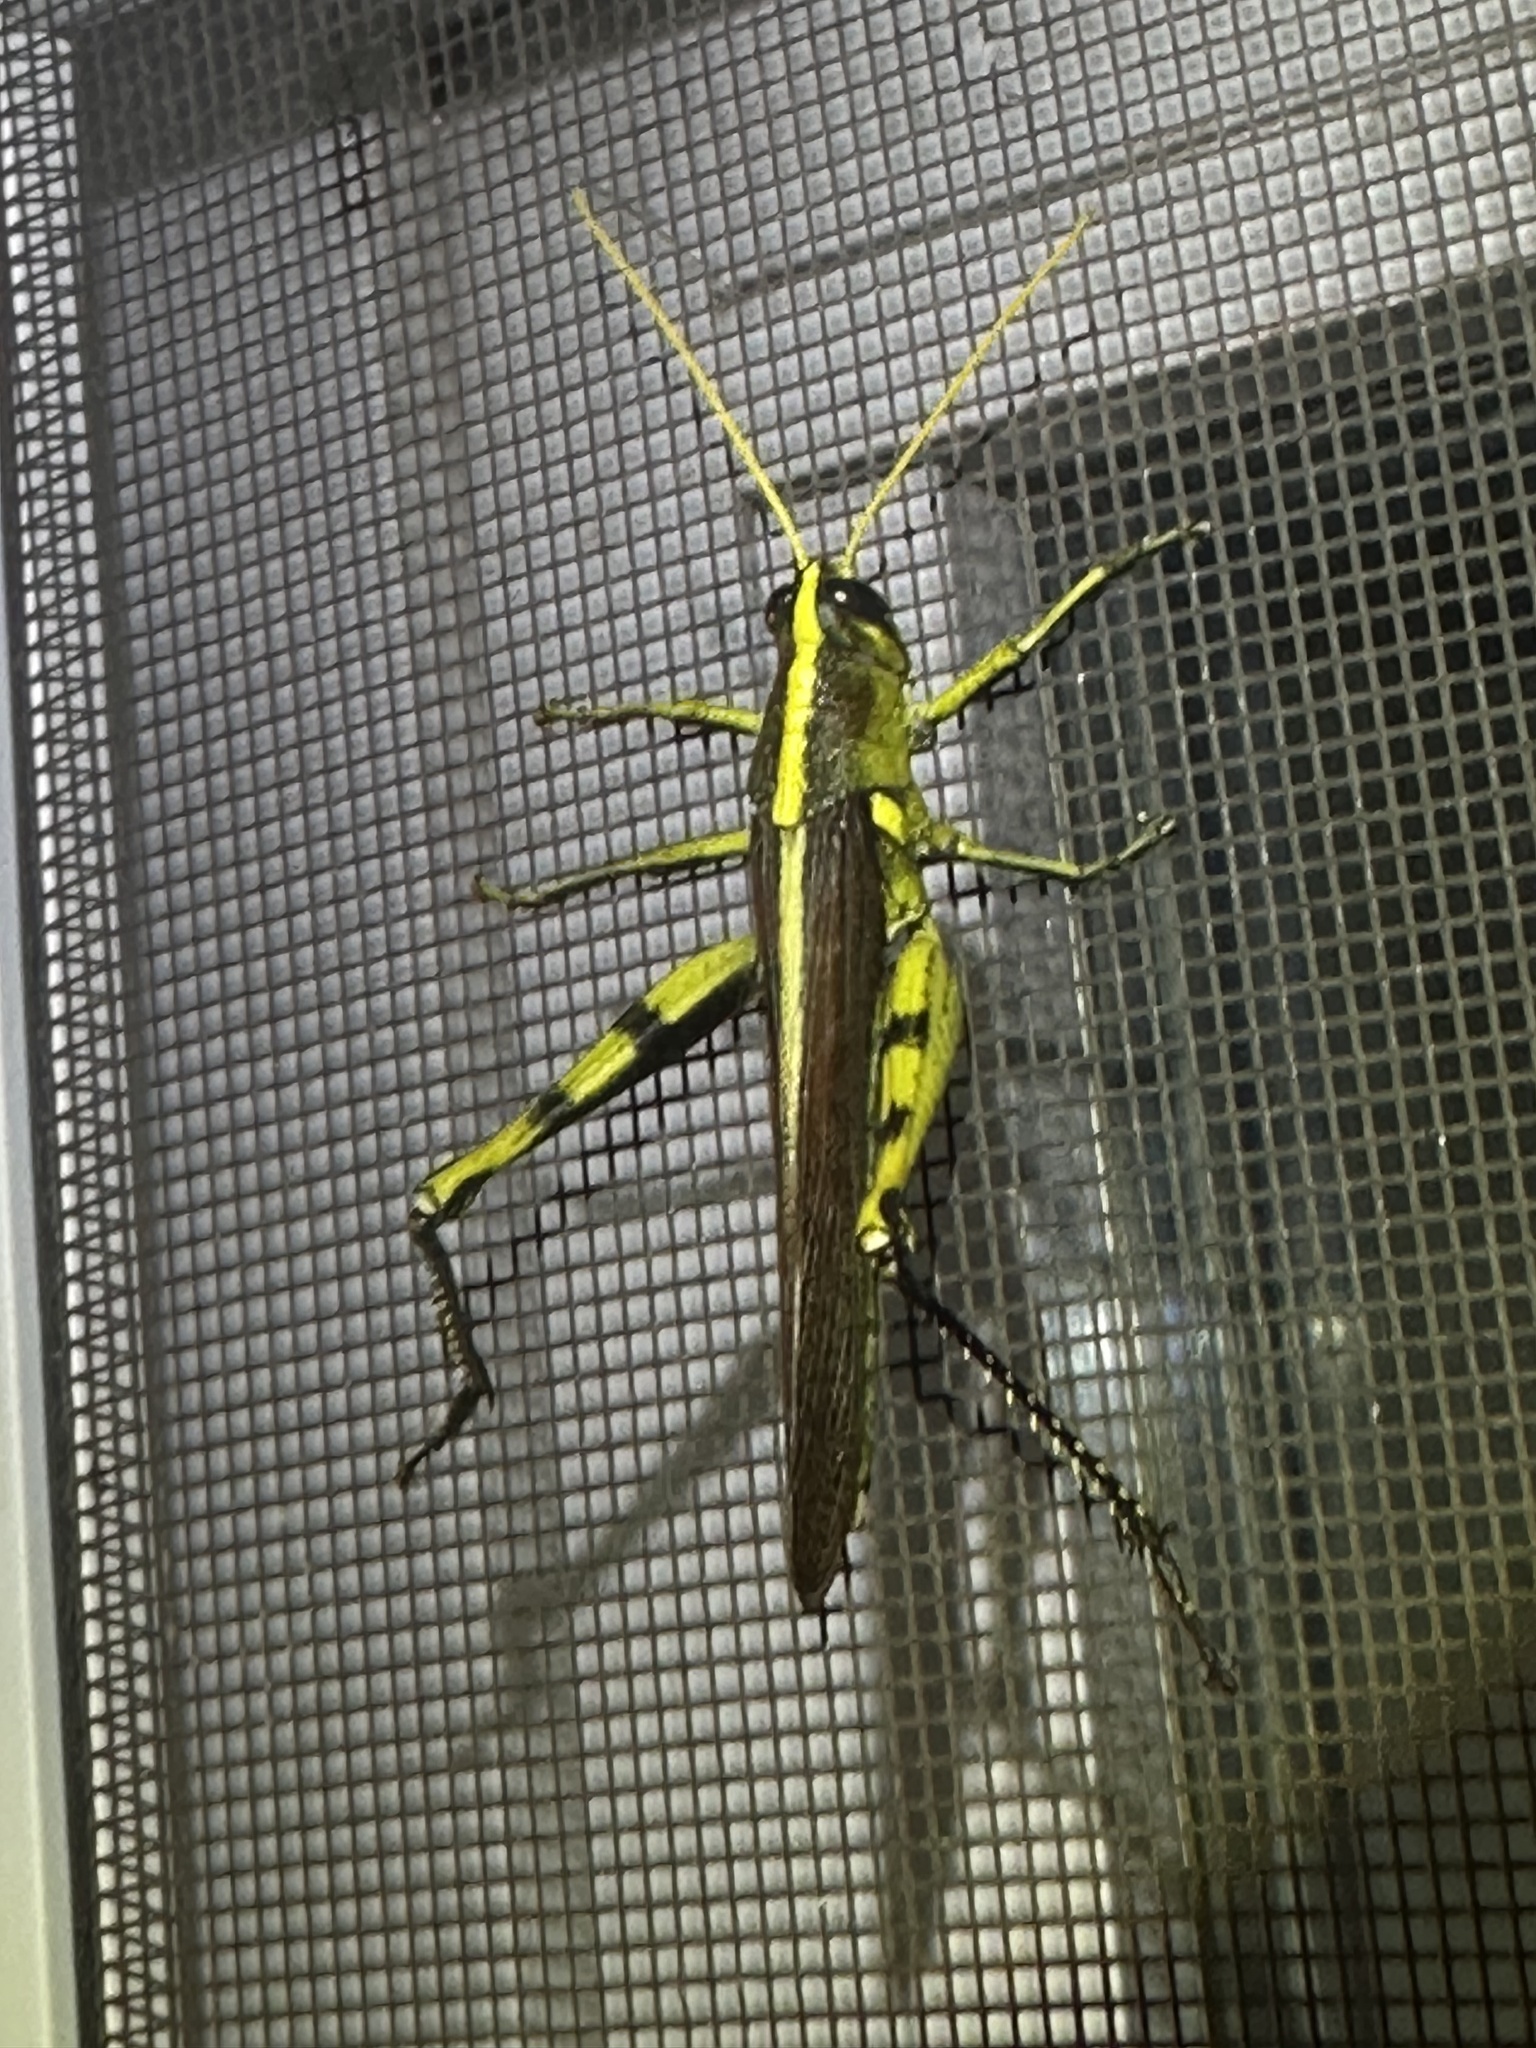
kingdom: Animalia
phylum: Arthropoda
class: Insecta
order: Orthoptera
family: Acrididae
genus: Schistocerca
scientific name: Schistocerca obscura
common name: Obscure bird grasshopper
